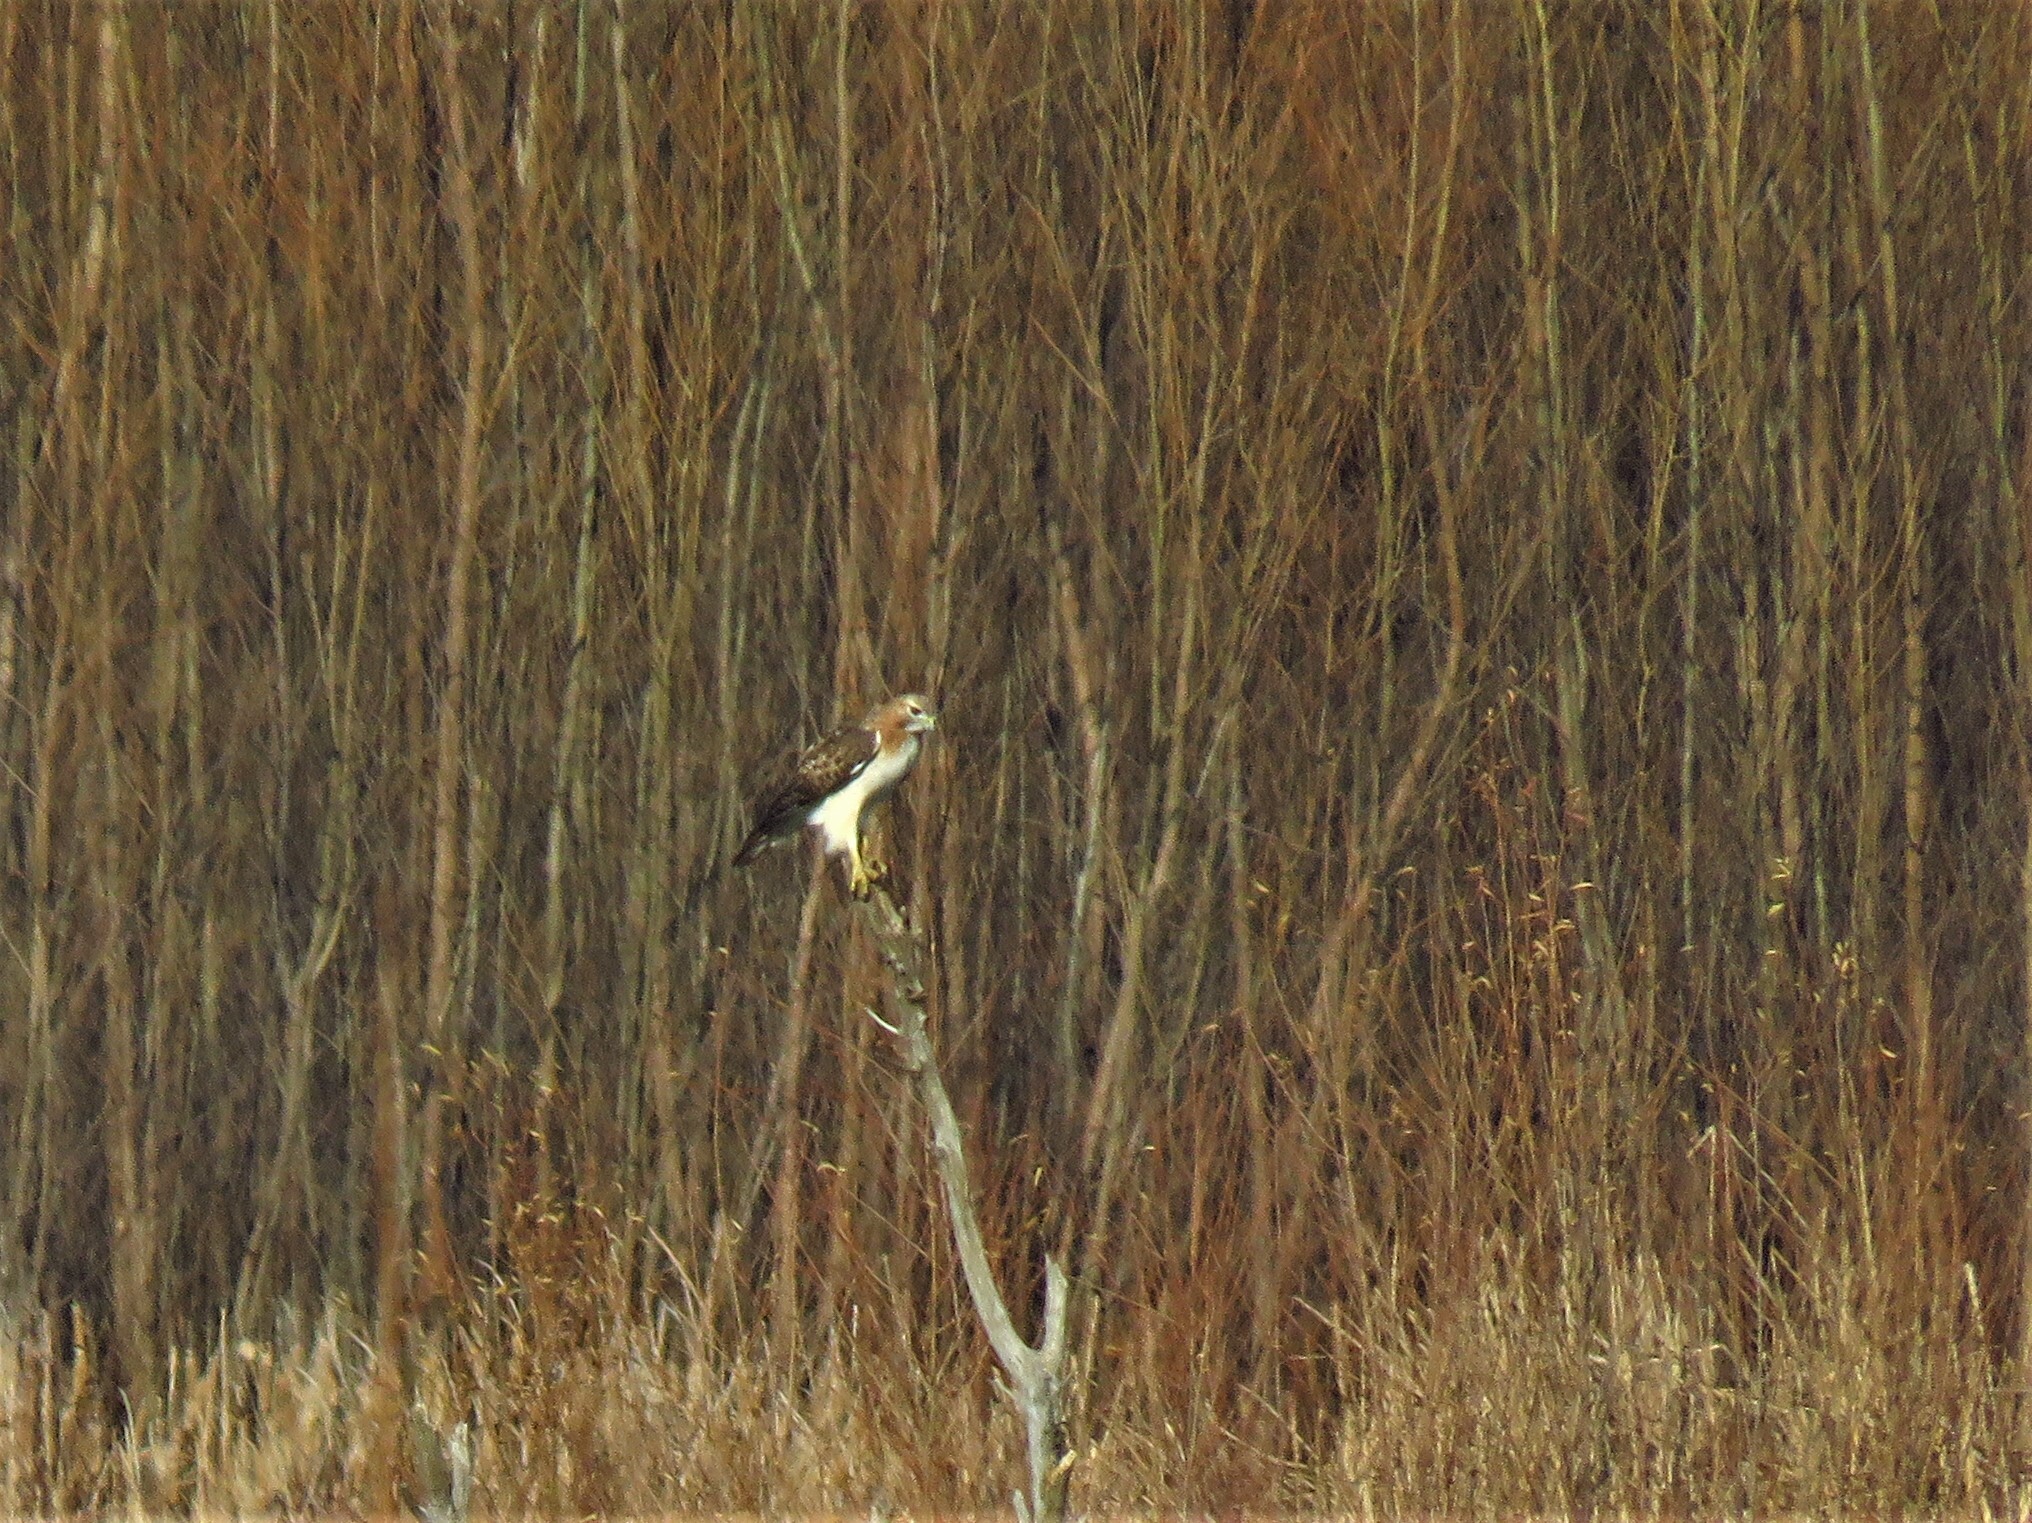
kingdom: Animalia
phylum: Chordata
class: Aves
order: Accipitriformes
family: Accipitridae
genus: Buteo
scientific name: Buteo jamaicensis
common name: Red-tailed hawk
